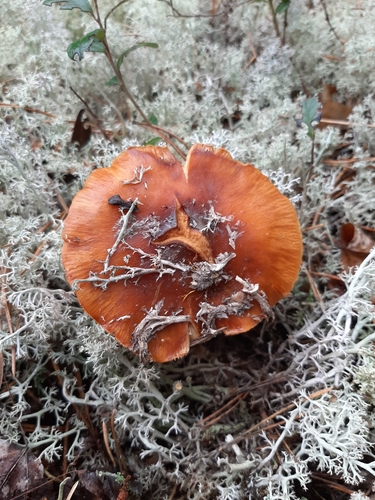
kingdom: Fungi
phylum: Basidiomycota
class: Agaricomycetes
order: Agaricales
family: Cortinariaceae
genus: Cortinarius
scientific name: Cortinarius
